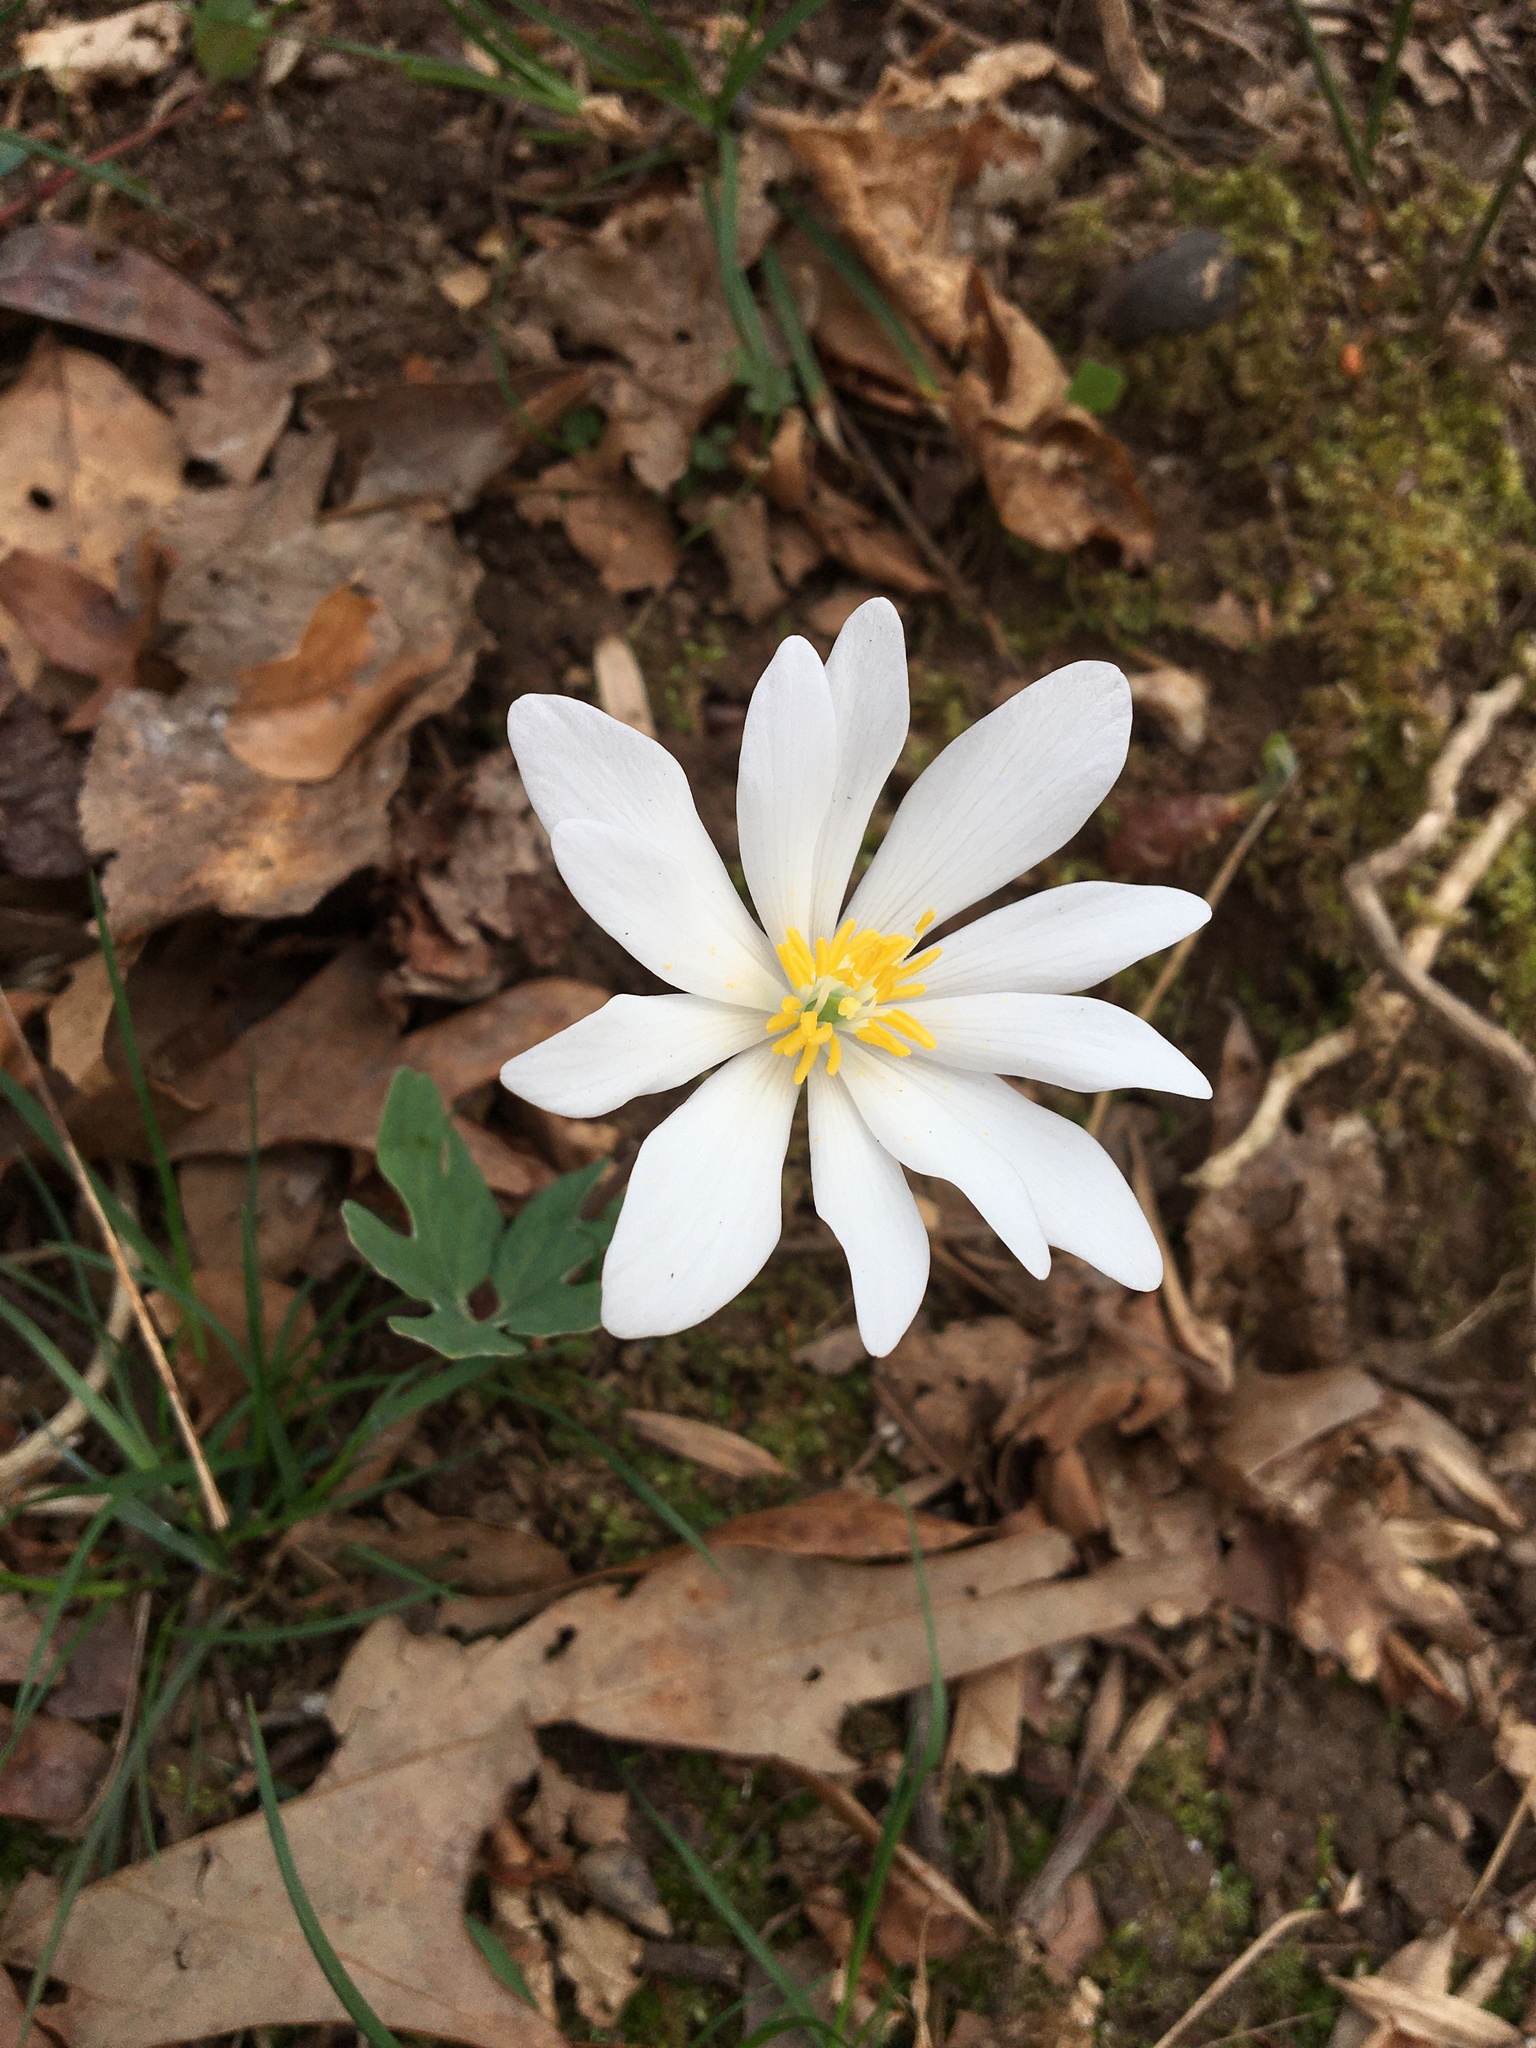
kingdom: Plantae
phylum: Tracheophyta
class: Magnoliopsida
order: Ranunculales
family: Papaveraceae
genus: Sanguinaria
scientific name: Sanguinaria canadensis
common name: Bloodroot
